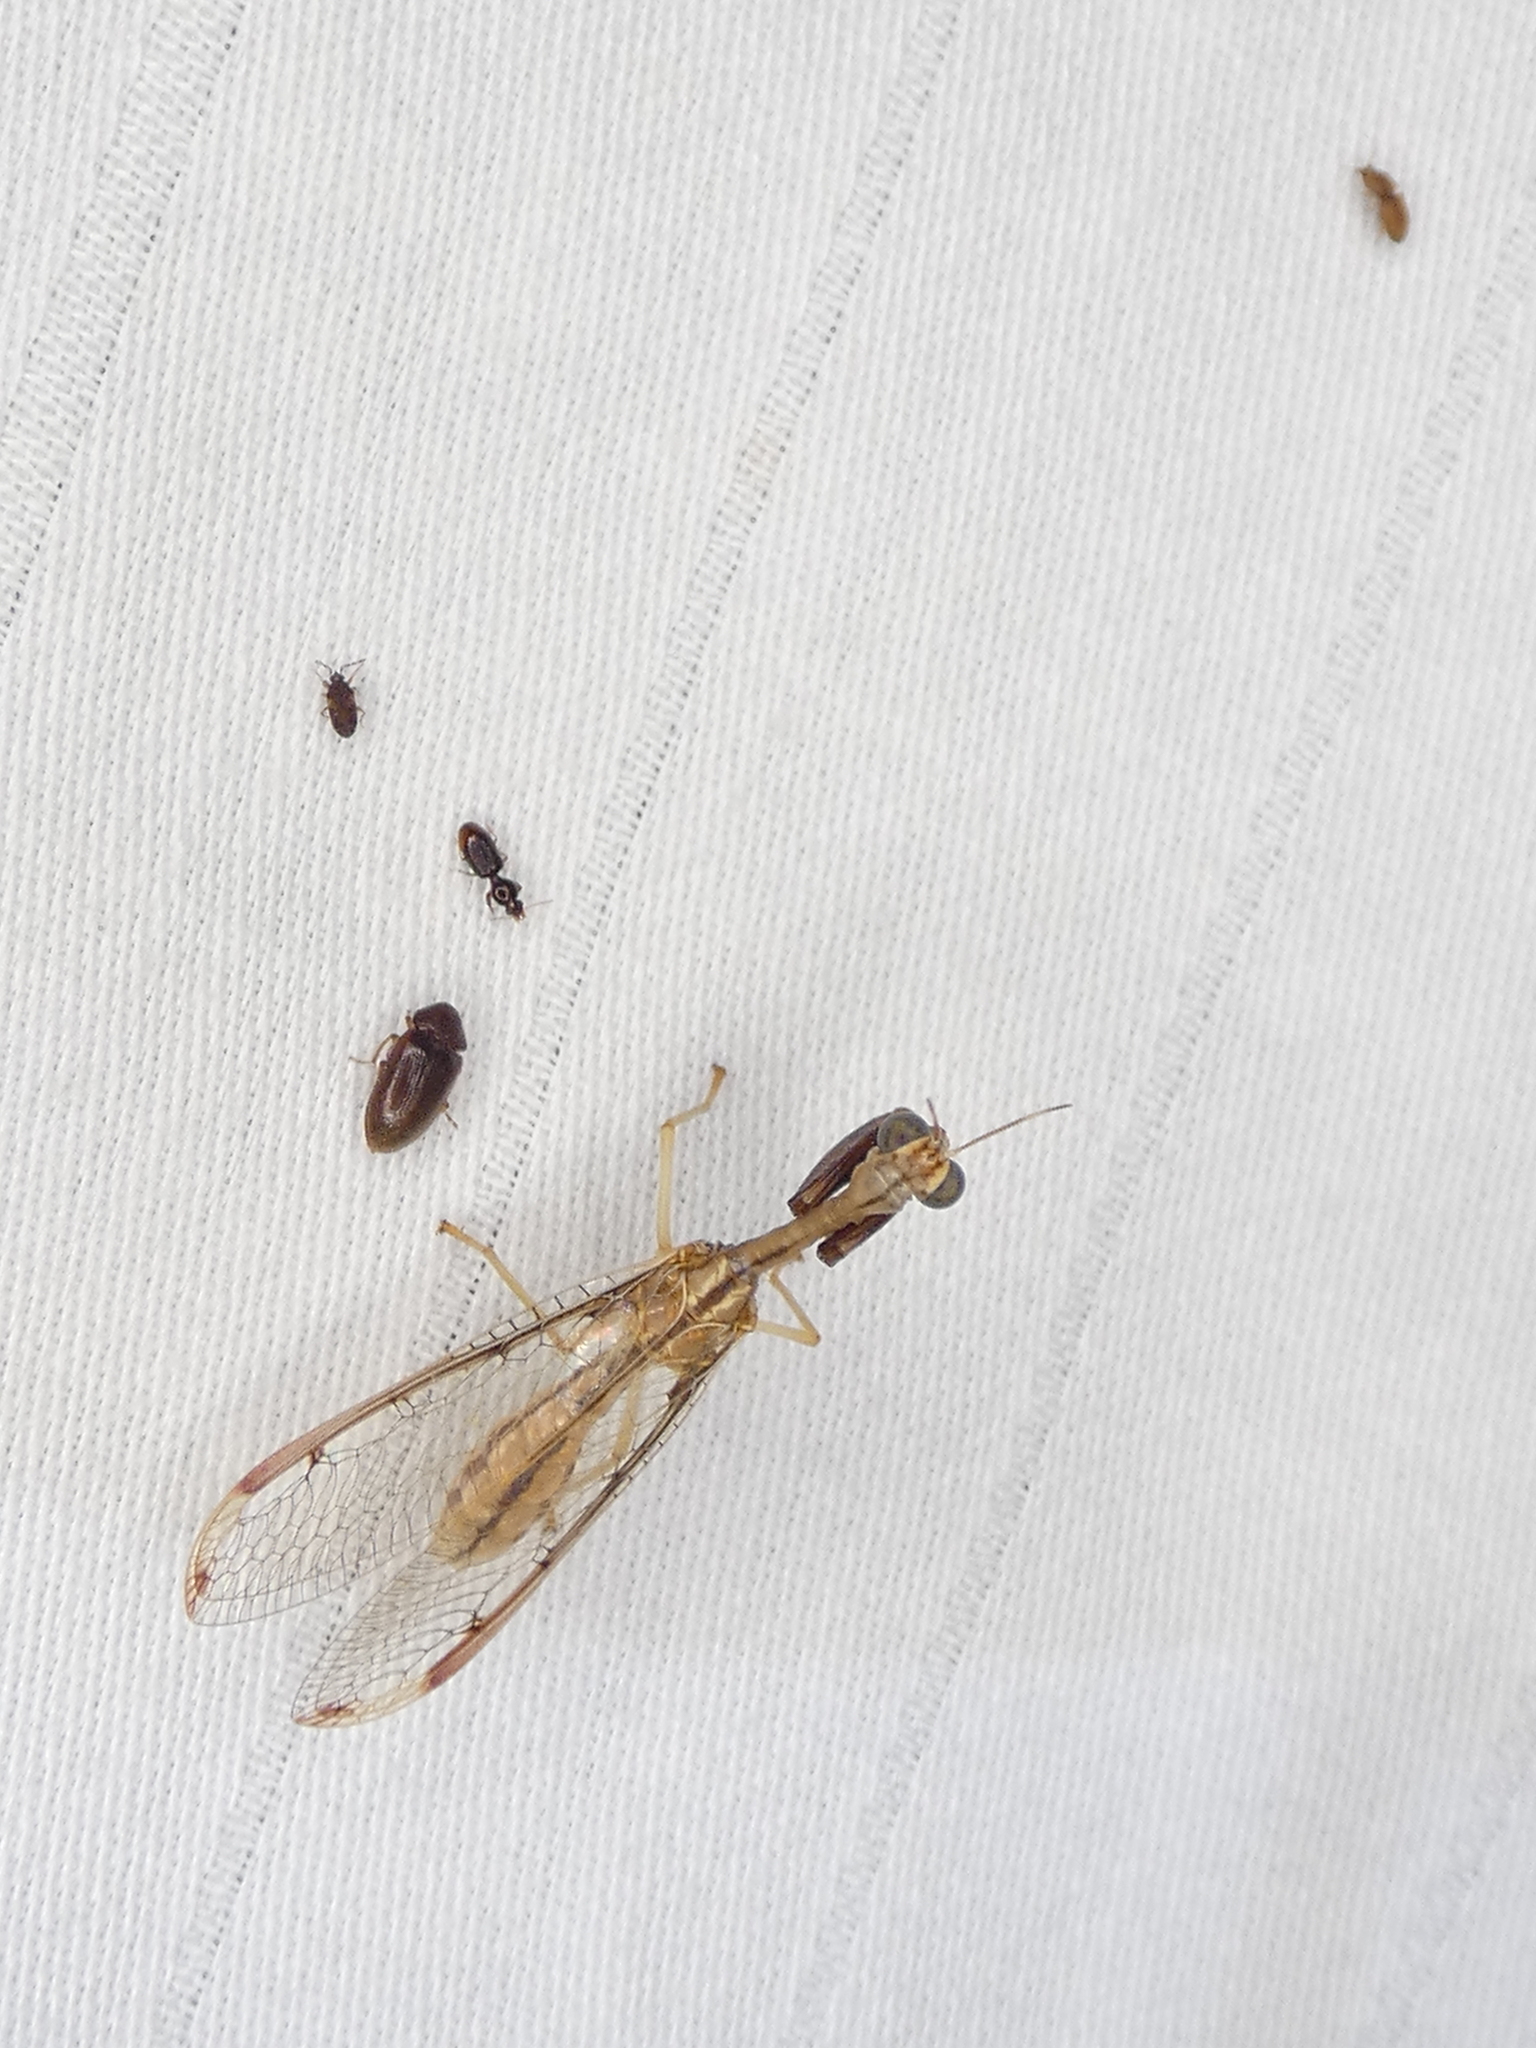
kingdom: Animalia
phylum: Arthropoda
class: Insecta
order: Neuroptera
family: Mantispidae
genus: Dicromantispa
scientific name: Dicromantispa interrupta
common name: Four-spotted mantidfly
